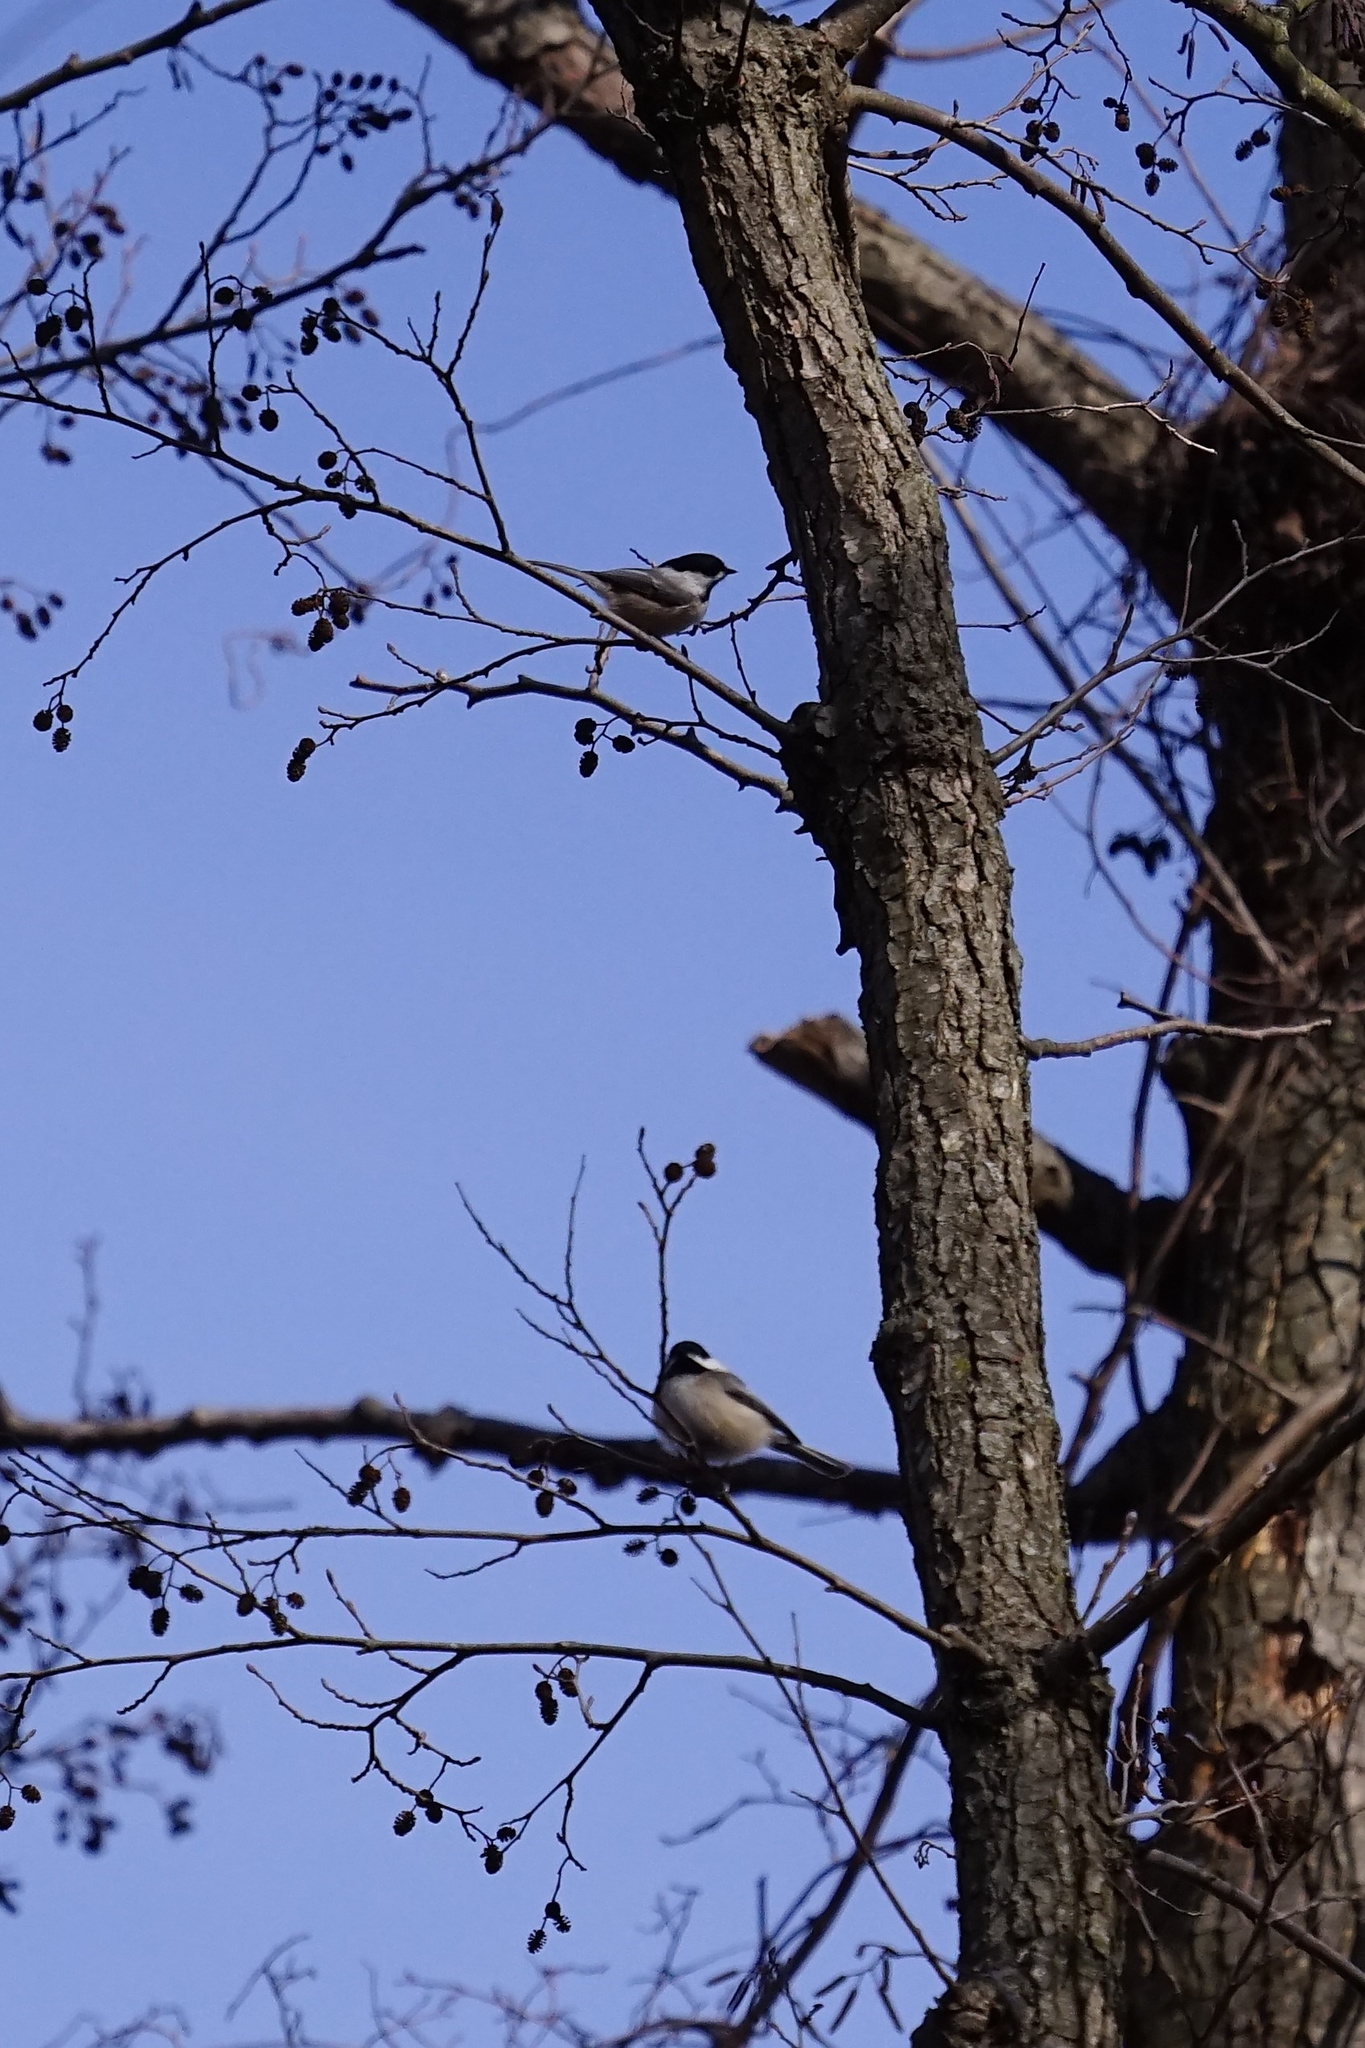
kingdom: Animalia
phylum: Chordata
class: Aves
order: Passeriformes
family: Paridae
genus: Poecile
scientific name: Poecile atricapillus
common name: Black-capped chickadee
